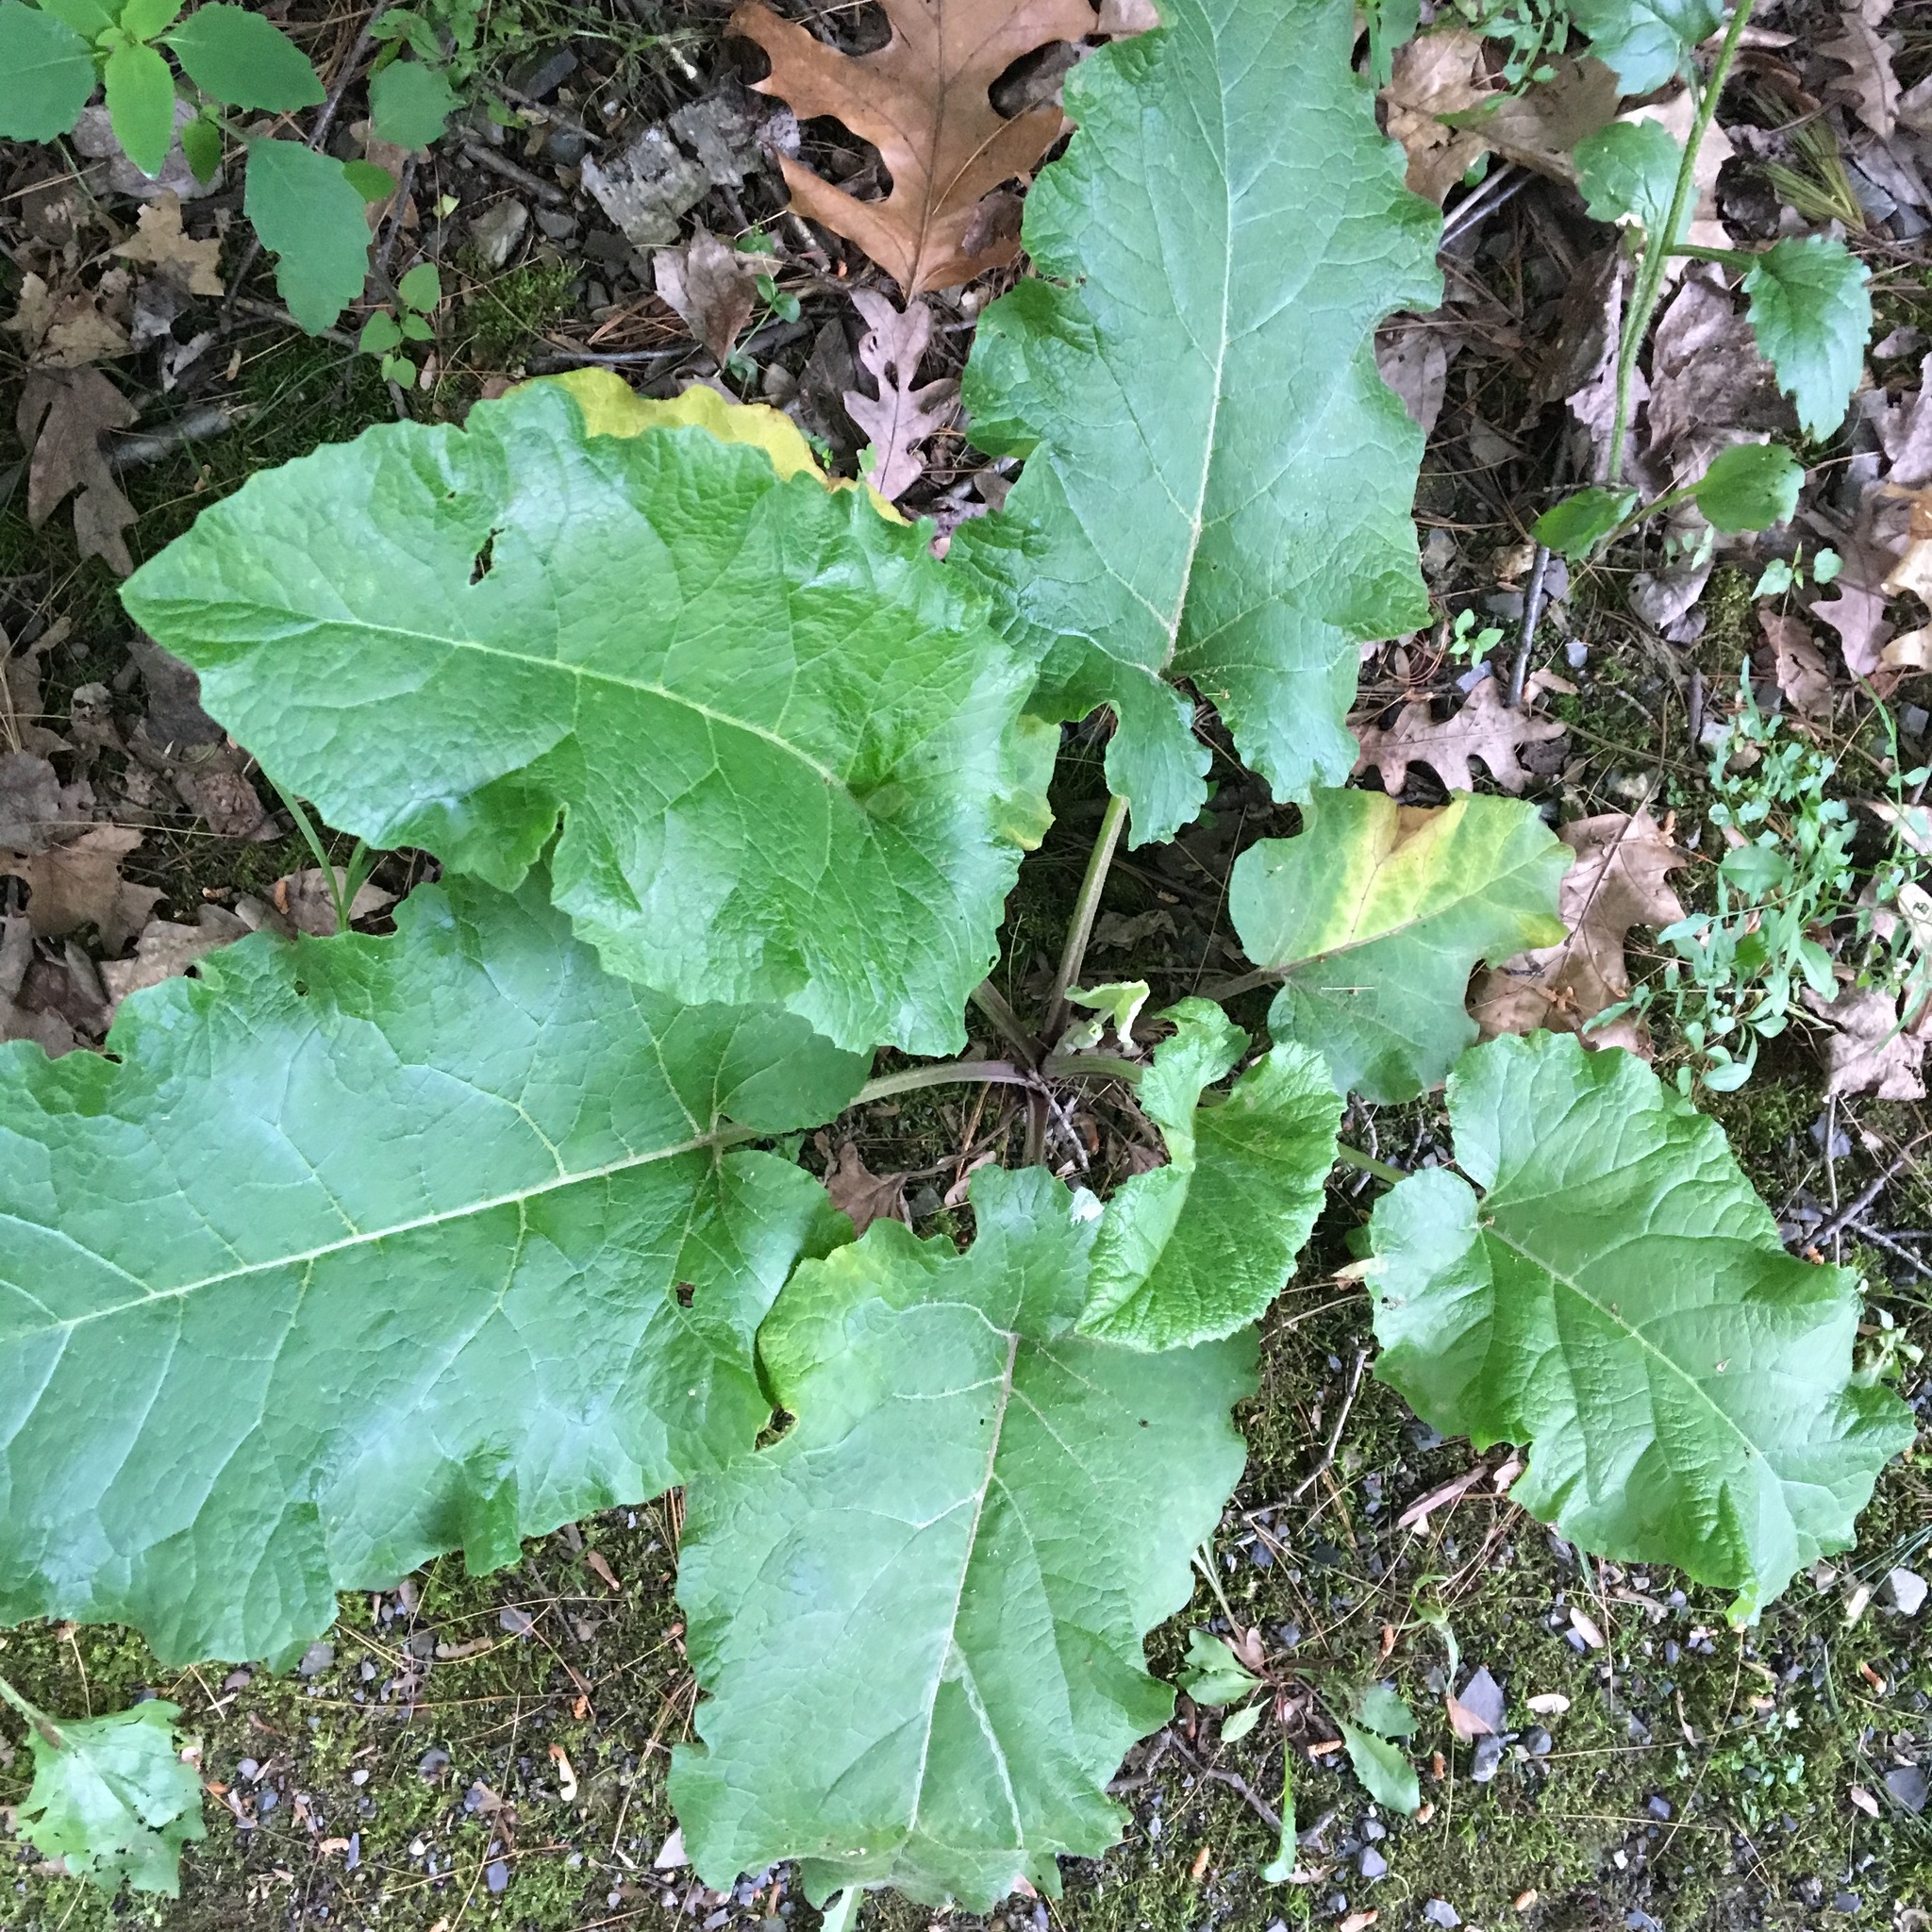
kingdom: Plantae
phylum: Tracheophyta
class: Magnoliopsida
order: Asterales
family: Asteraceae
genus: Arctium
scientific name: Arctium
